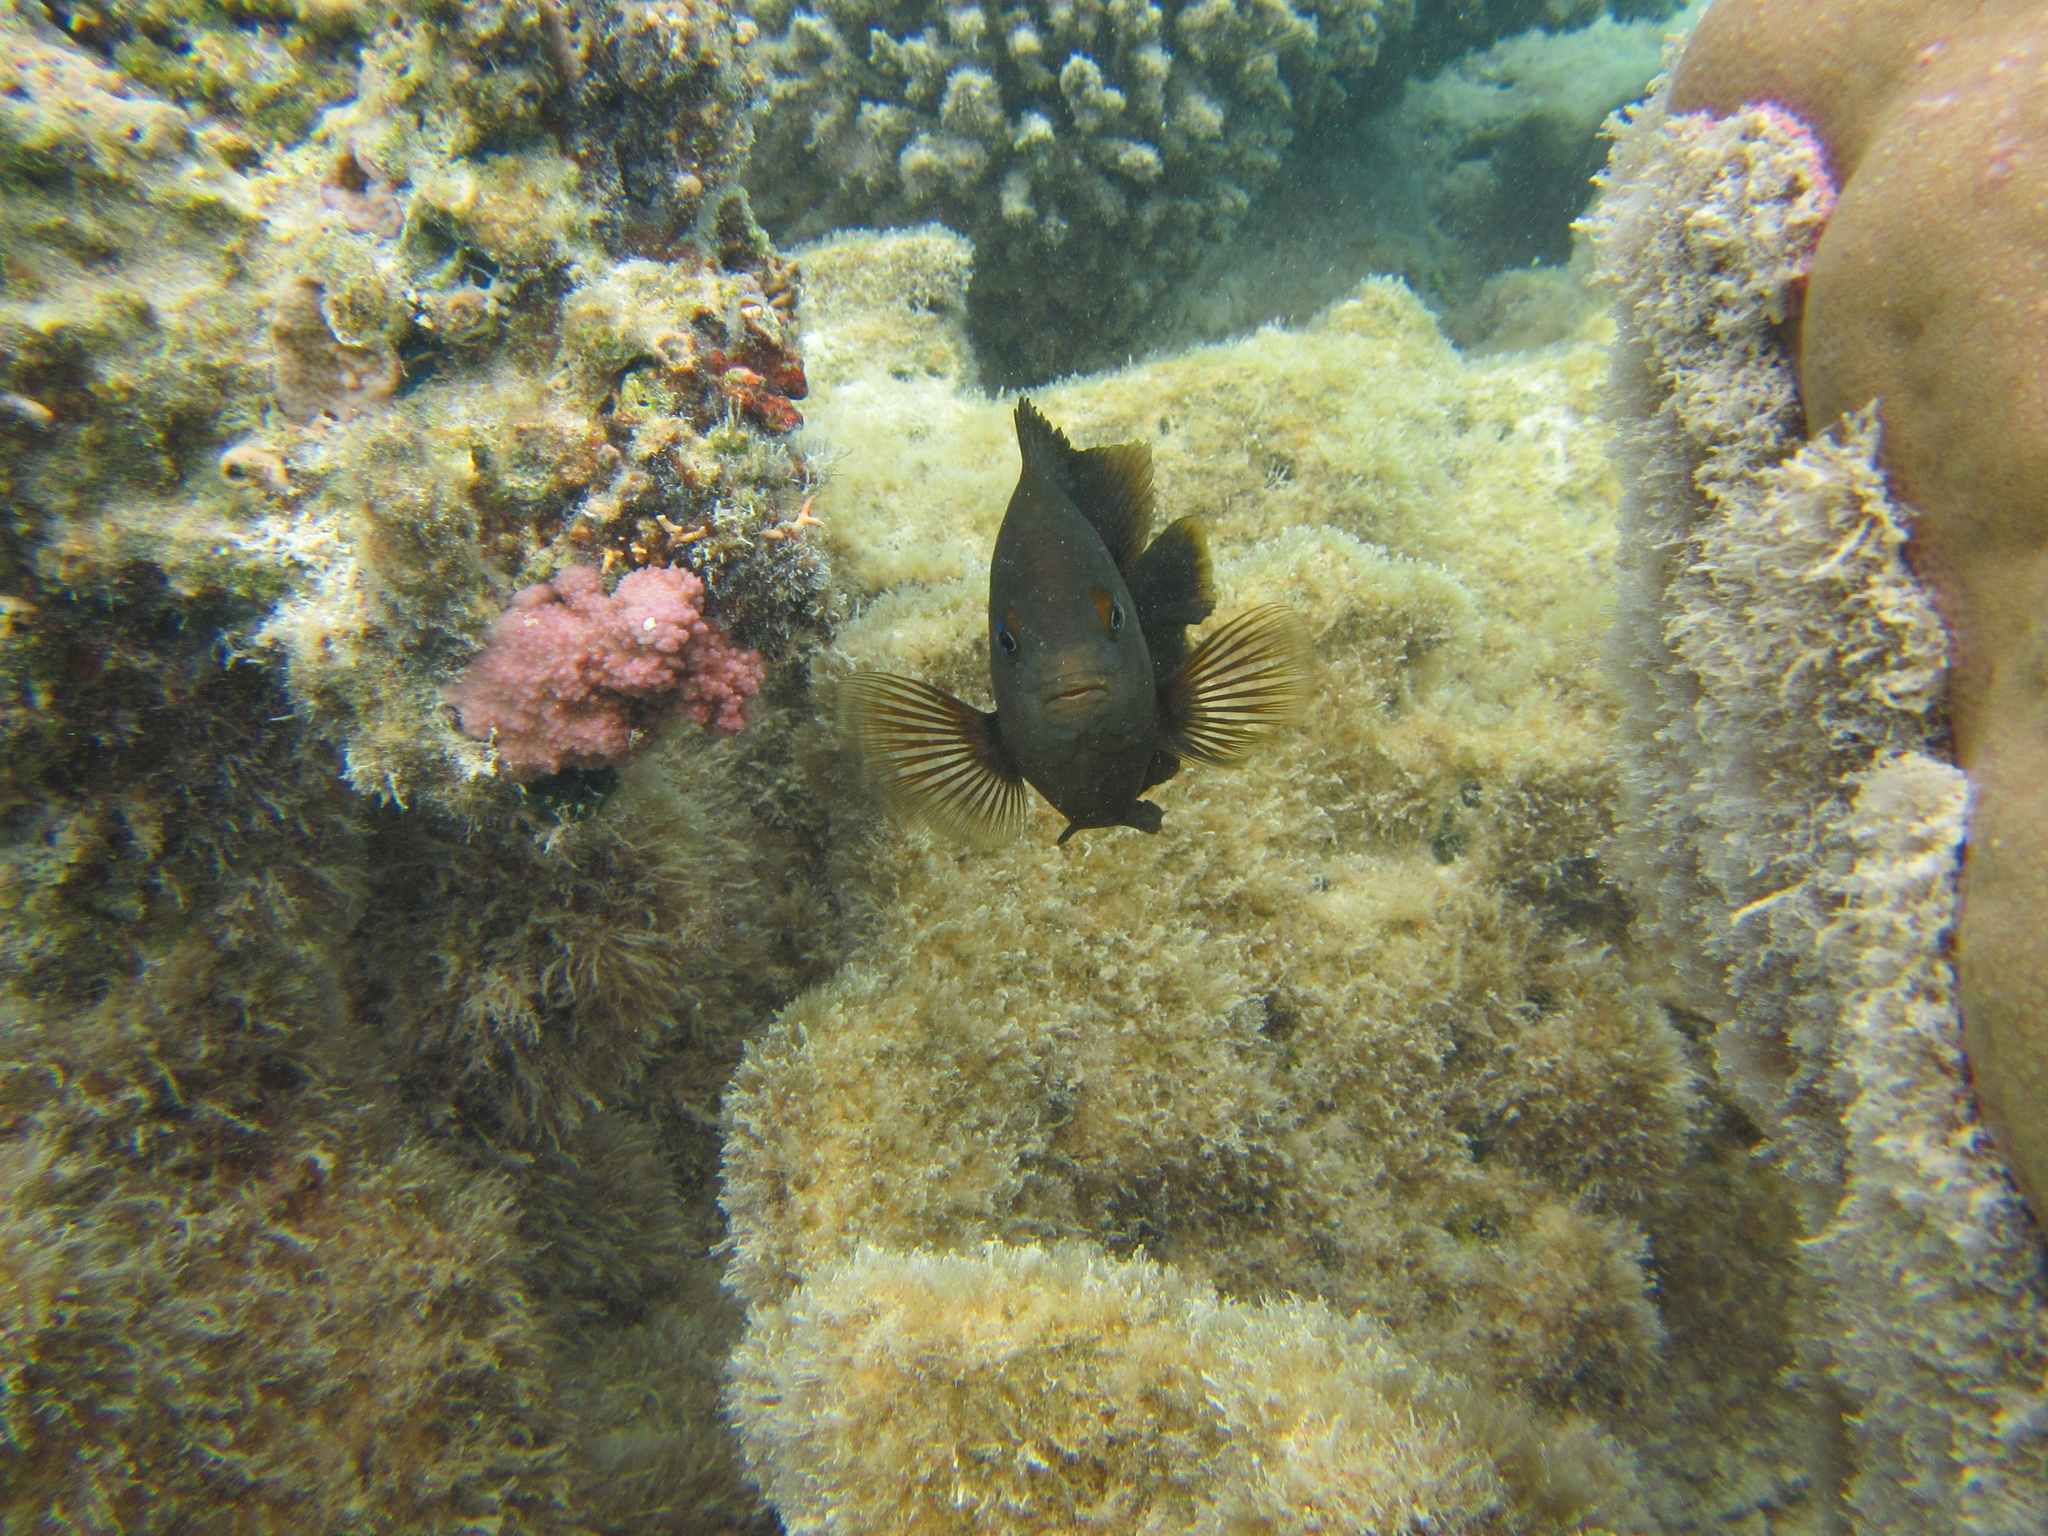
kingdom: Animalia
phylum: Chordata
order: Perciformes
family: Pomacentridae
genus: Stegastes
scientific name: Stegastes nigricans
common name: Dusky gregory
